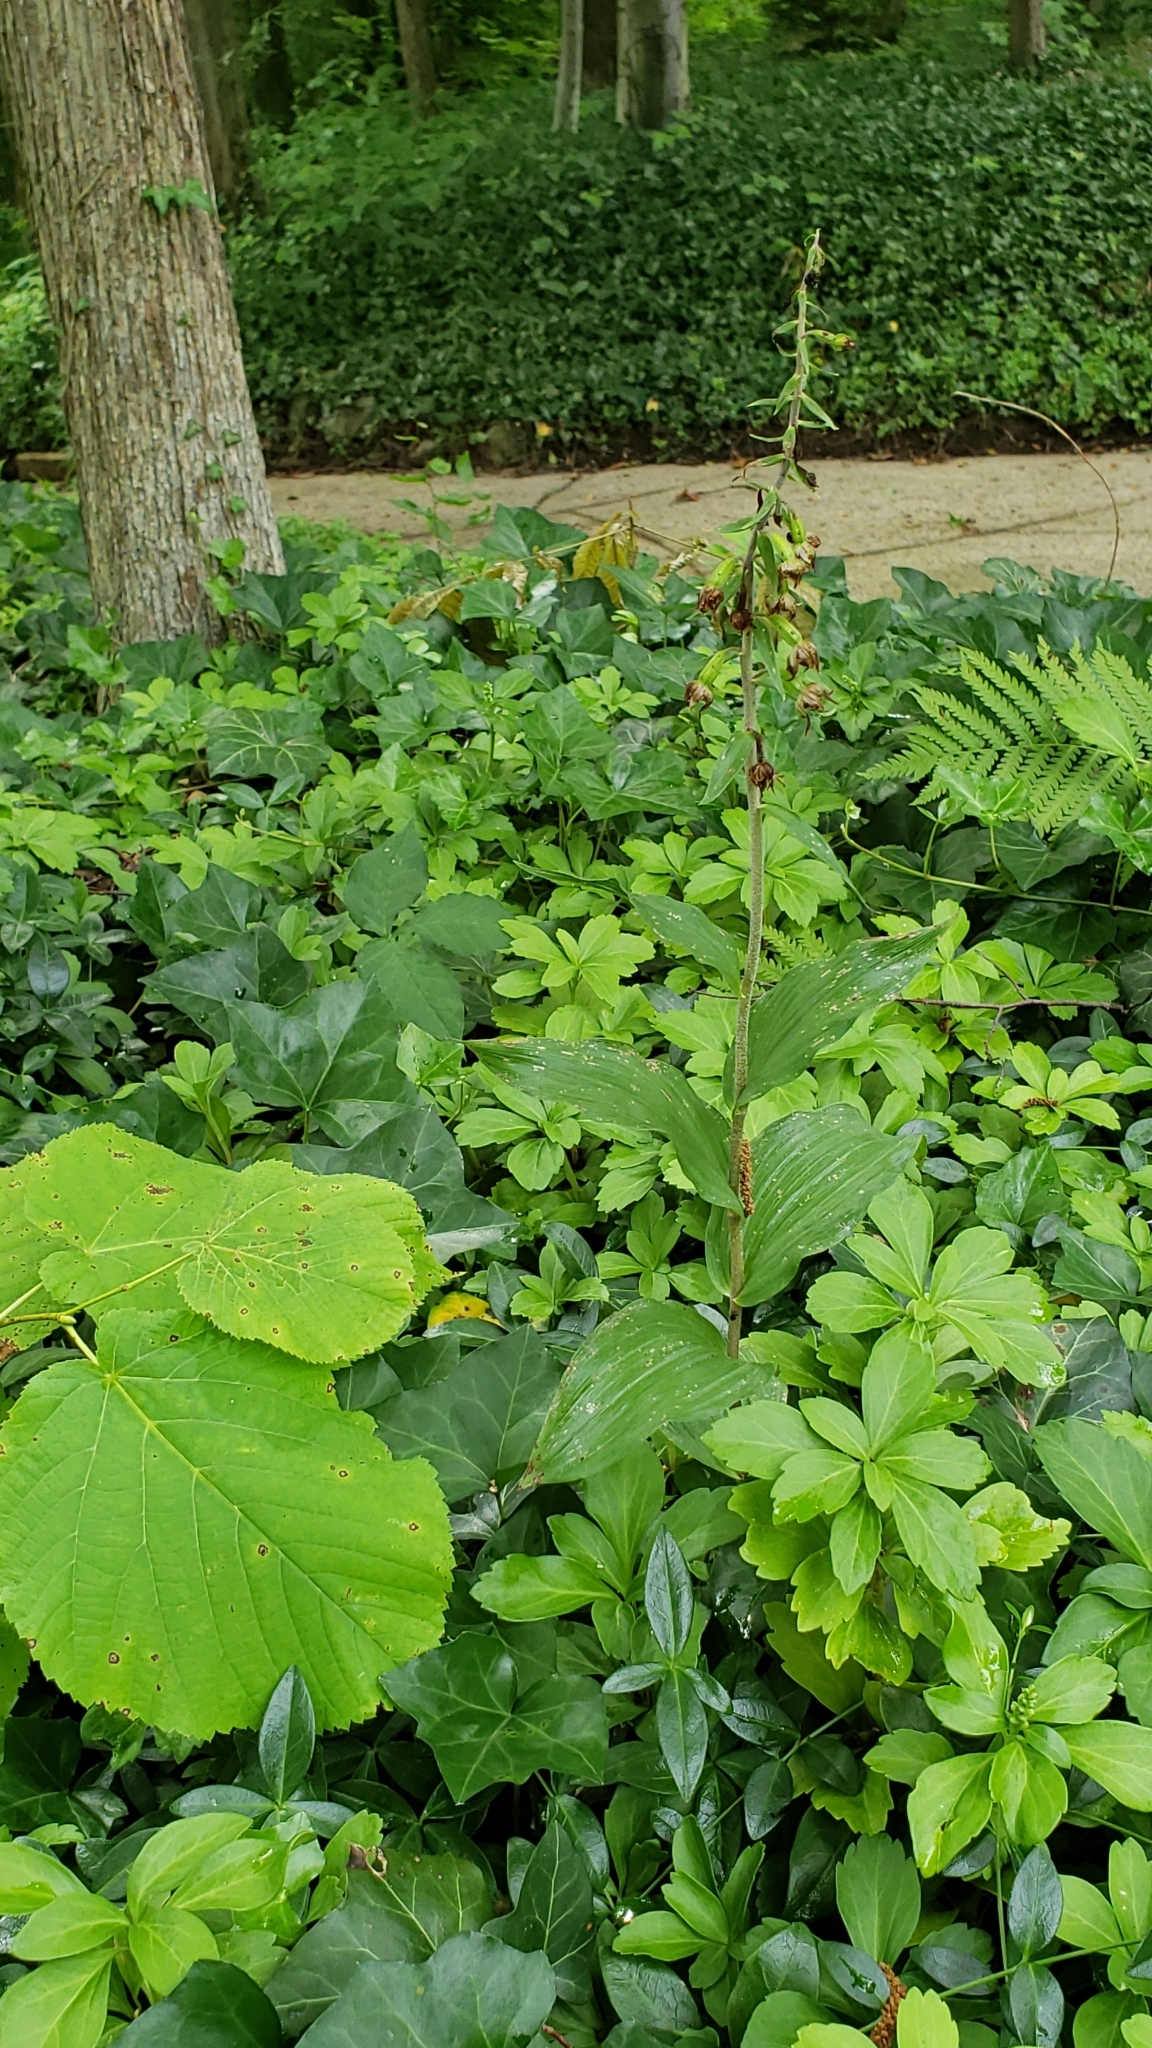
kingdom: Plantae
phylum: Tracheophyta
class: Liliopsida
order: Asparagales
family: Orchidaceae
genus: Epipactis
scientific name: Epipactis helleborine
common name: Broad-leaved helleborine
